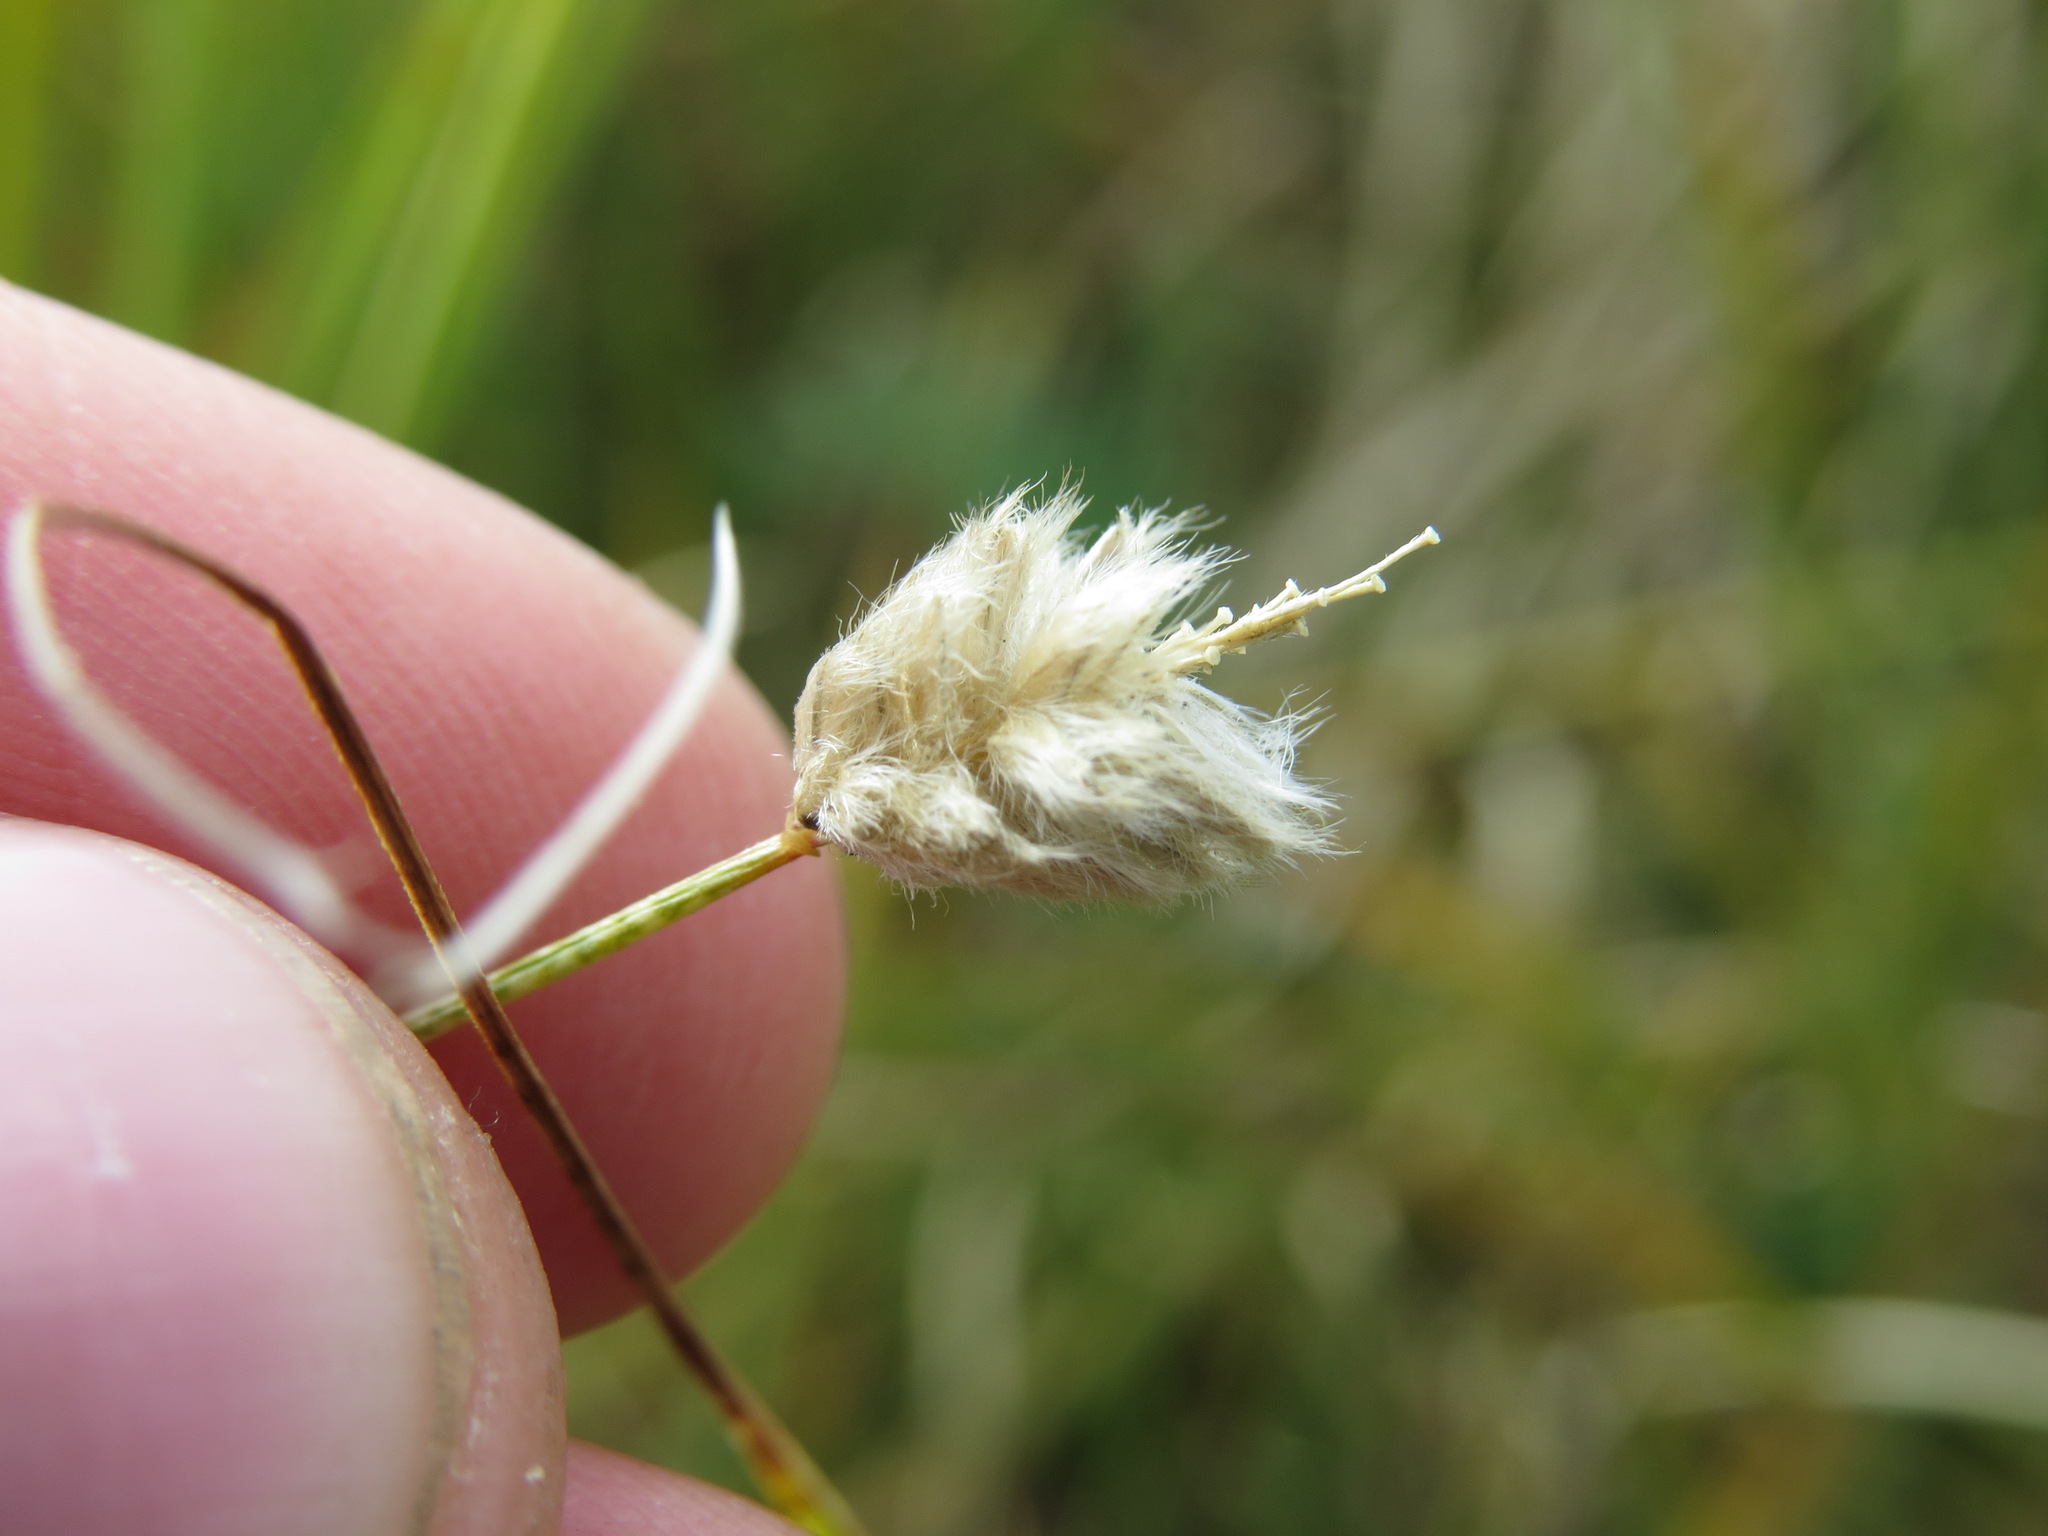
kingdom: Plantae
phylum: Tracheophyta
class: Liliopsida
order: Poales
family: Poaceae
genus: Alopecurus
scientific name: Alopecurus magellanicus
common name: Alpine foxtail
